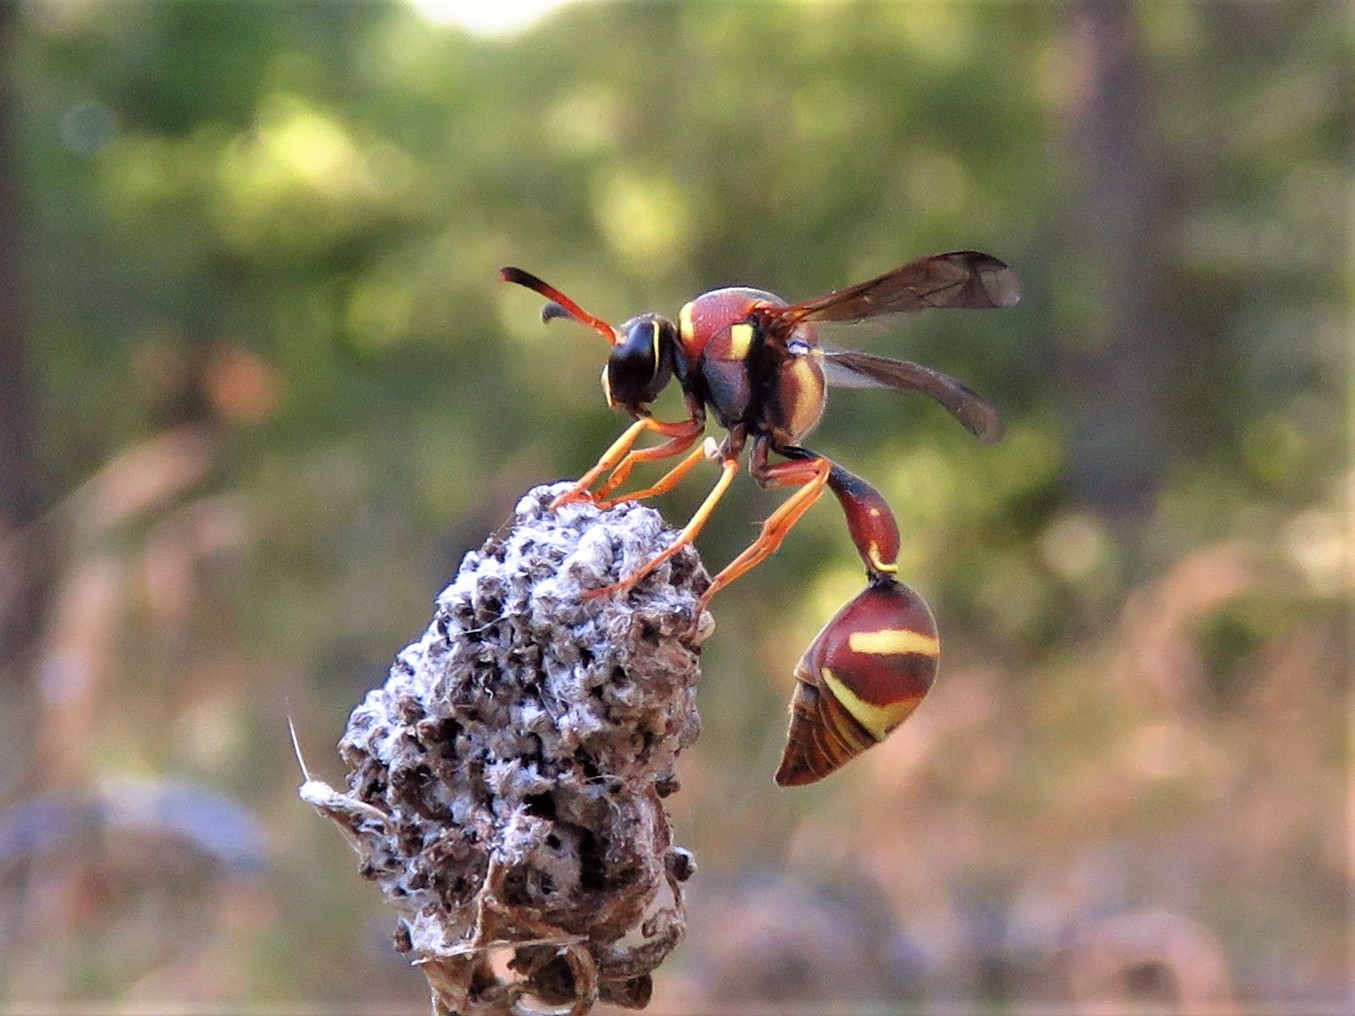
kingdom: Animalia
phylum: Arthropoda
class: Insecta
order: Hymenoptera
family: Vespidae
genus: Eumenes
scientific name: Eumenes smithii
